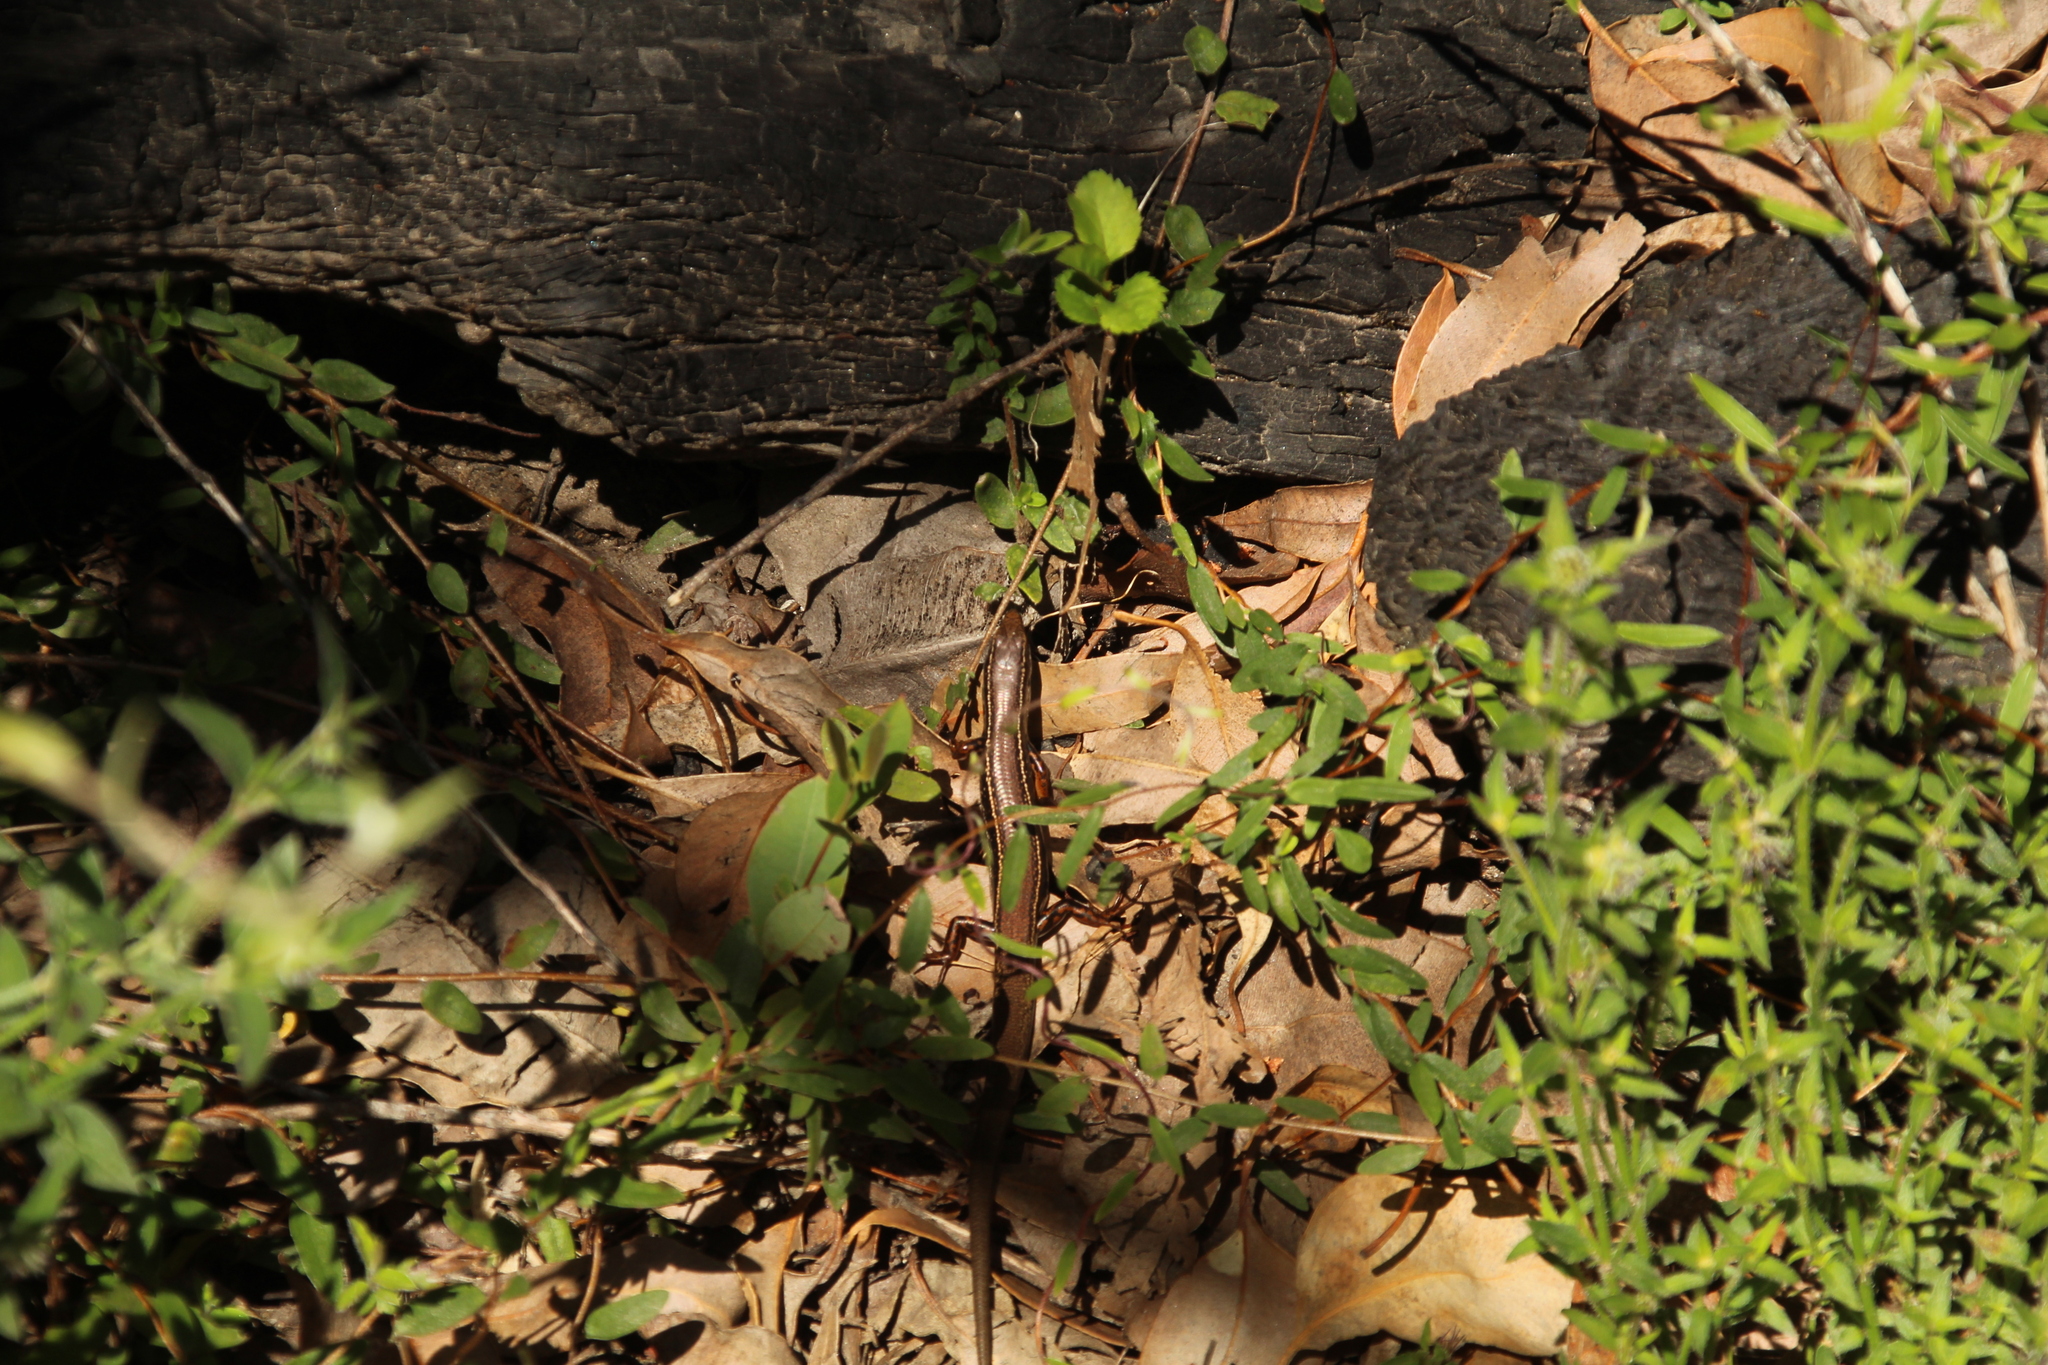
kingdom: Animalia
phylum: Chordata
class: Squamata
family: Scincidae
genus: Ctenotus
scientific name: Ctenotus labillardieri
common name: Common south-west ctenotus
